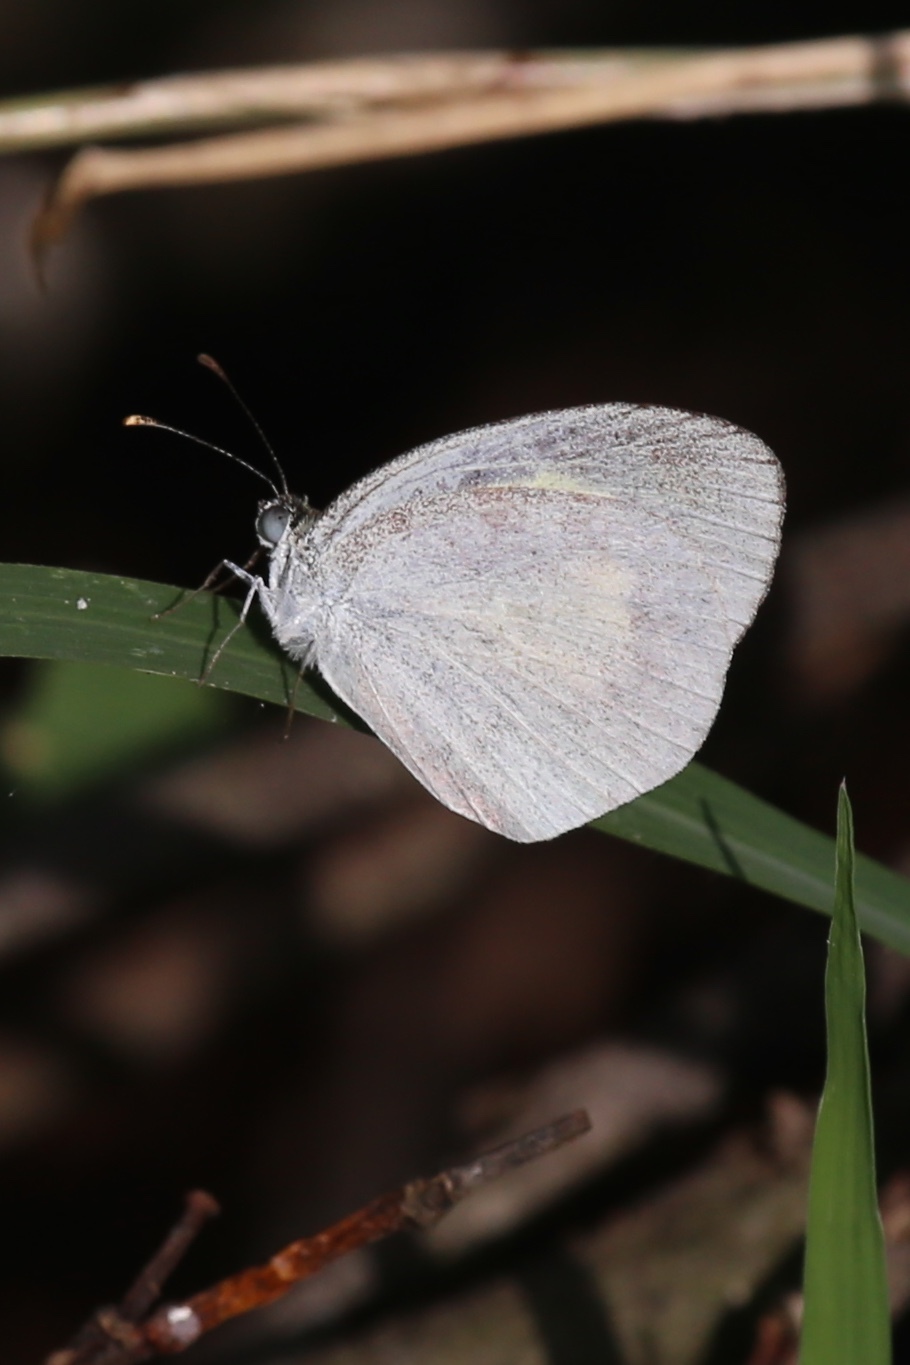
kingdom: Animalia
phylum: Arthropoda
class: Insecta
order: Lepidoptera
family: Pieridae
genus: Eurema
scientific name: Eurema daira
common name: Barred sulphur
